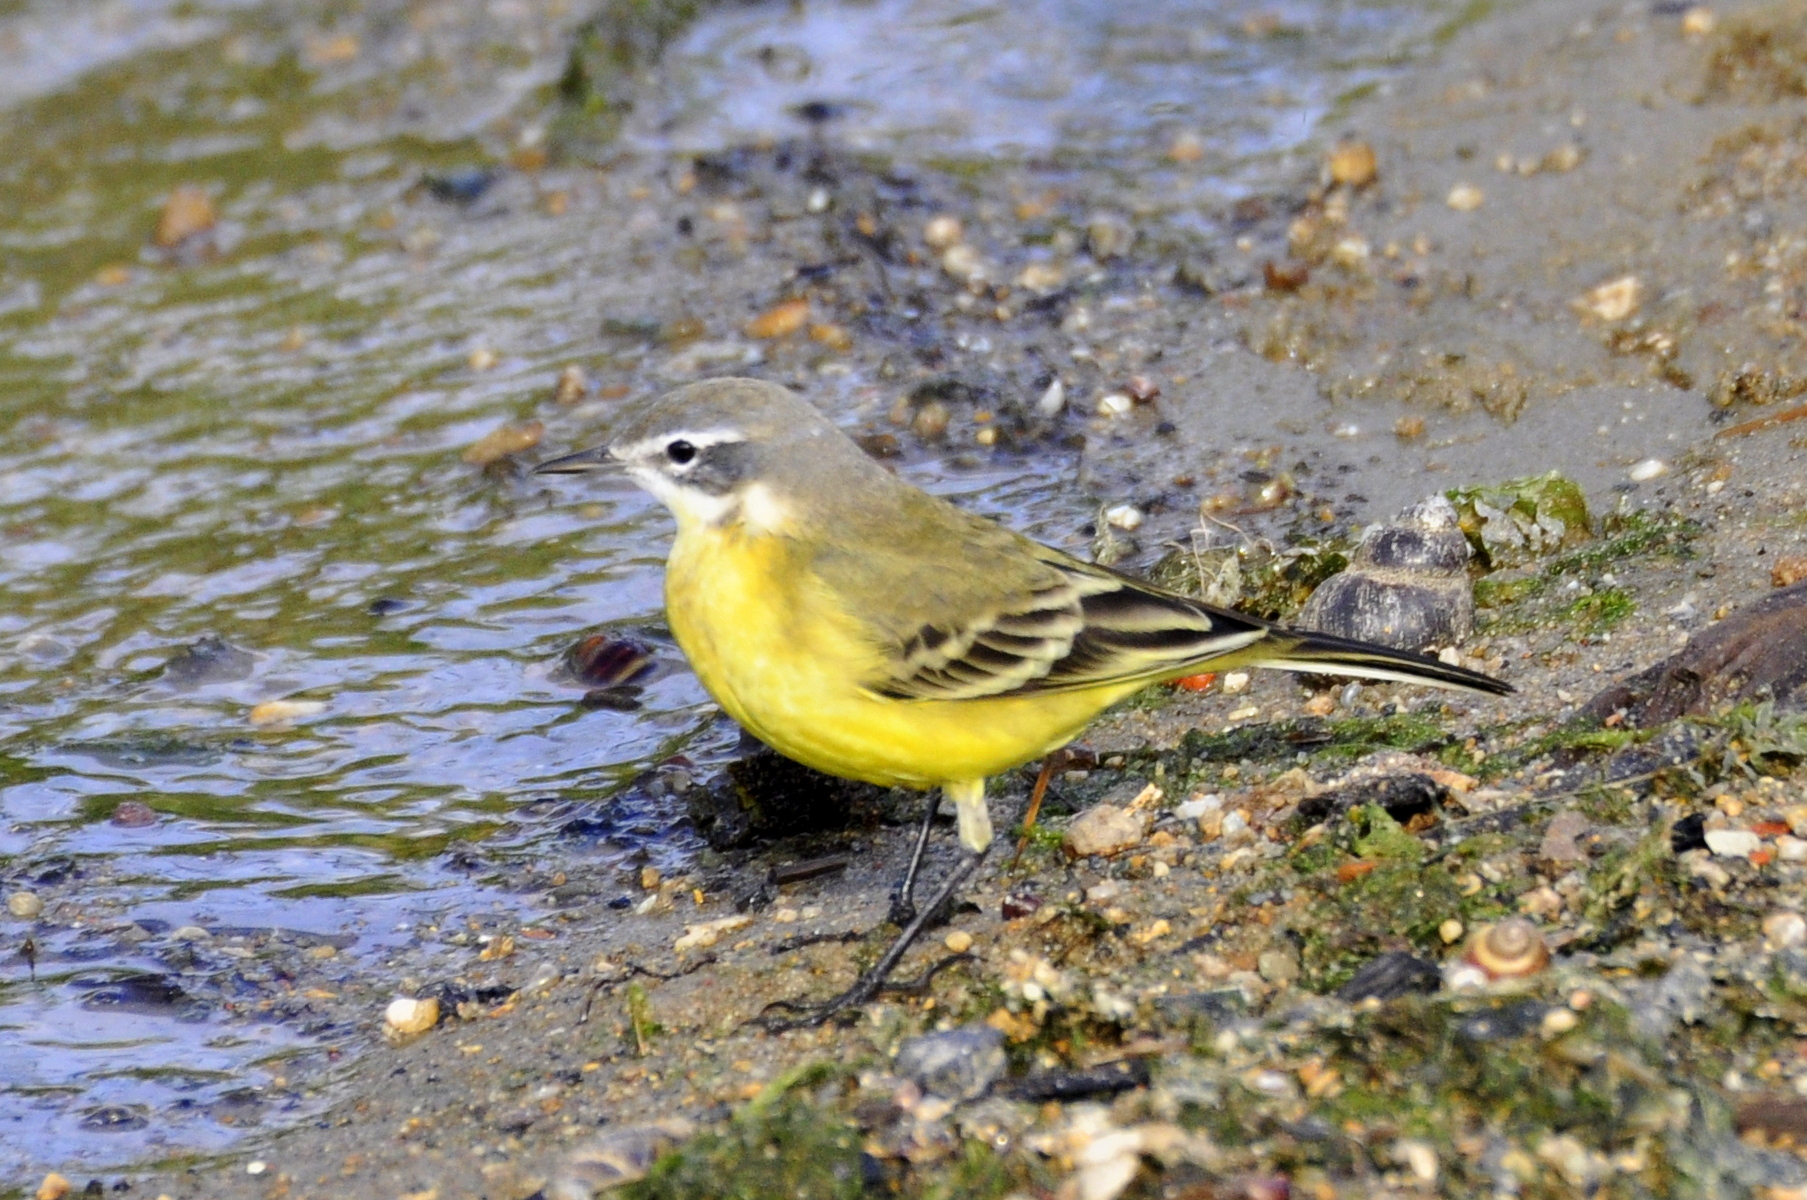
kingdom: Animalia
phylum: Chordata
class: Aves
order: Passeriformes
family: Motacillidae
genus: Motacilla
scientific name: Motacilla flava
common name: Western yellow wagtail
